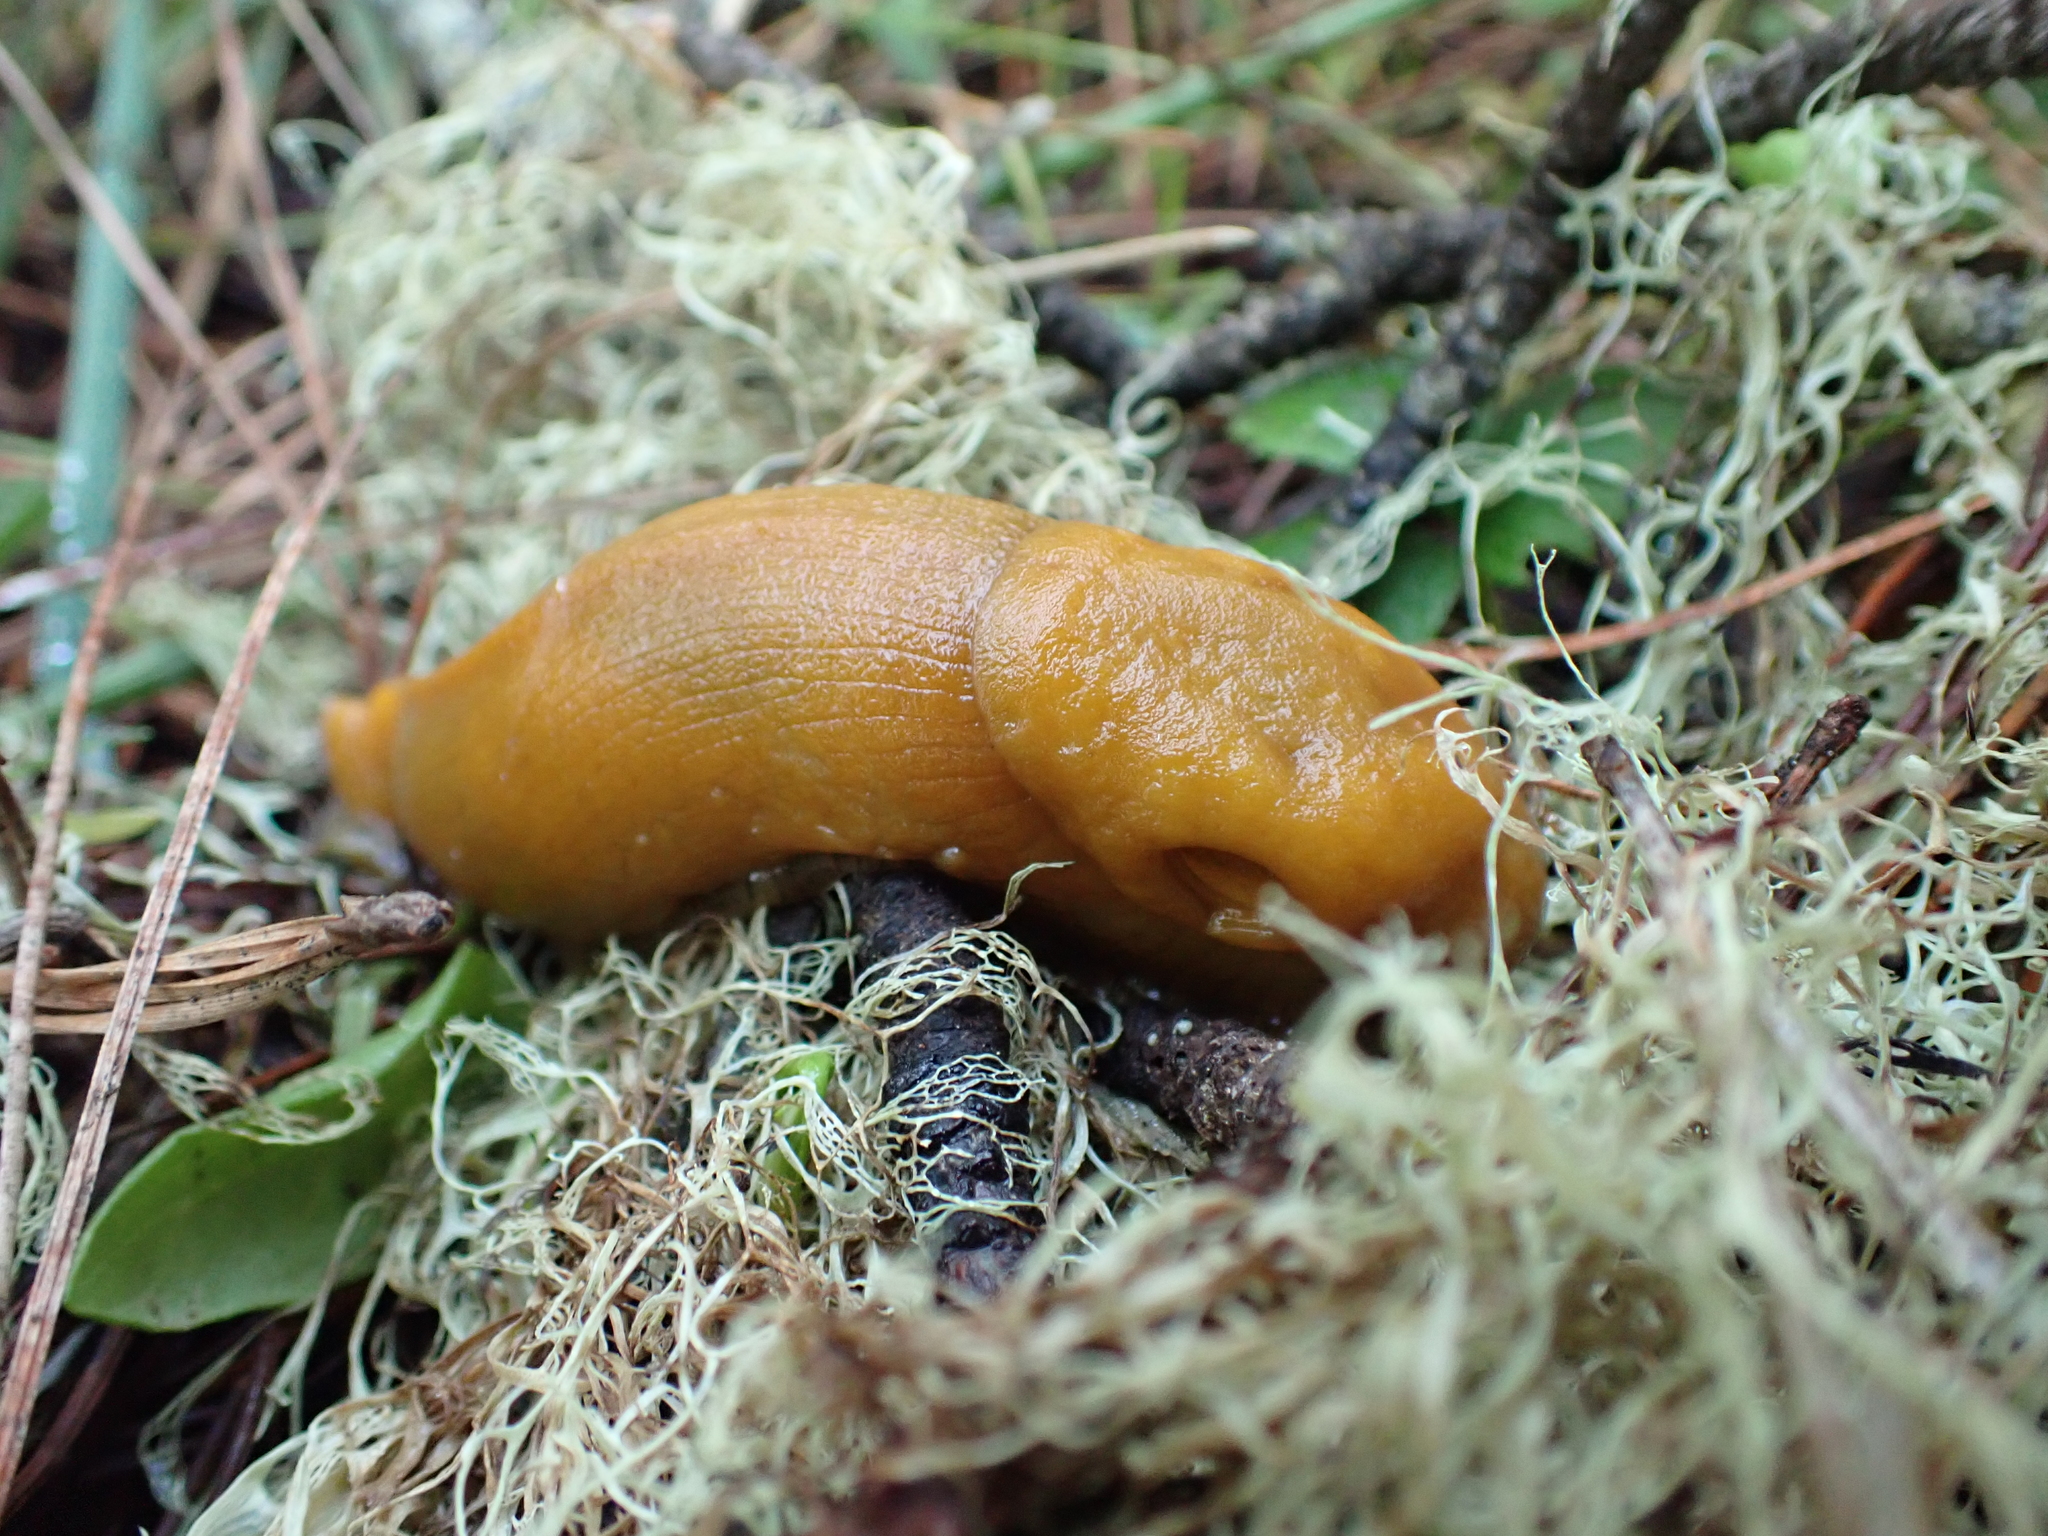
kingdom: Animalia
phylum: Mollusca
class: Gastropoda
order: Stylommatophora
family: Ariolimacidae
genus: Ariolimax
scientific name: Ariolimax californicus
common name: California banana slug
